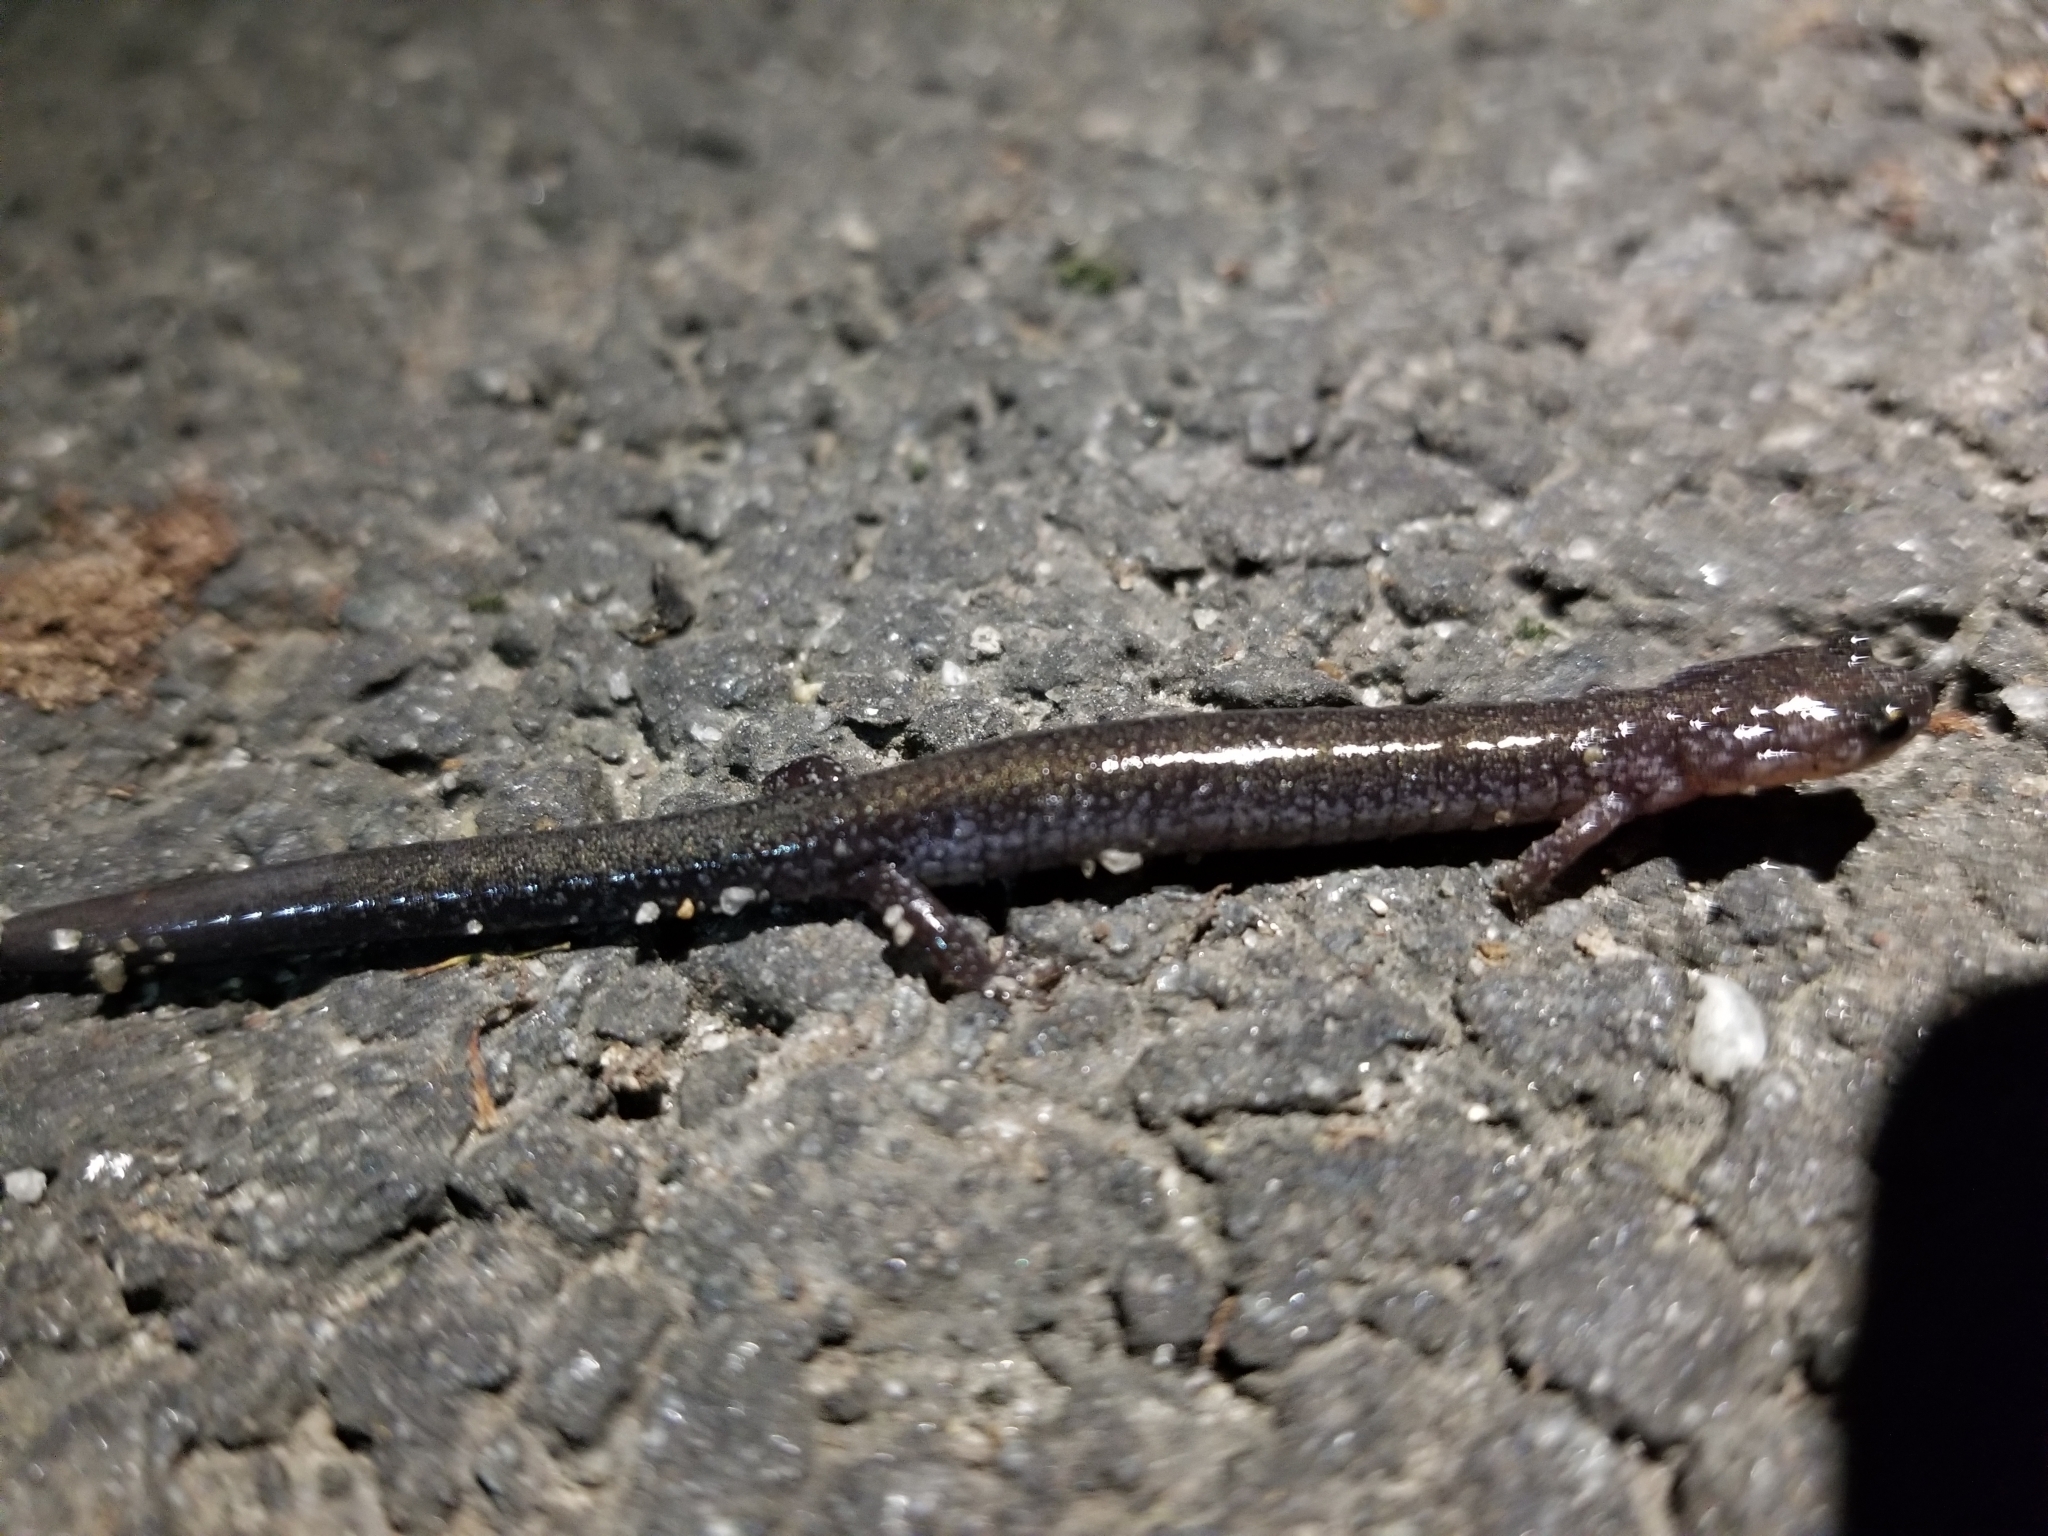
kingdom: Animalia
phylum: Chordata
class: Amphibia
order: Caudata
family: Plethodontidae
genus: Plethodon
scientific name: Plethodon cinereus
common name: Redback salamander
